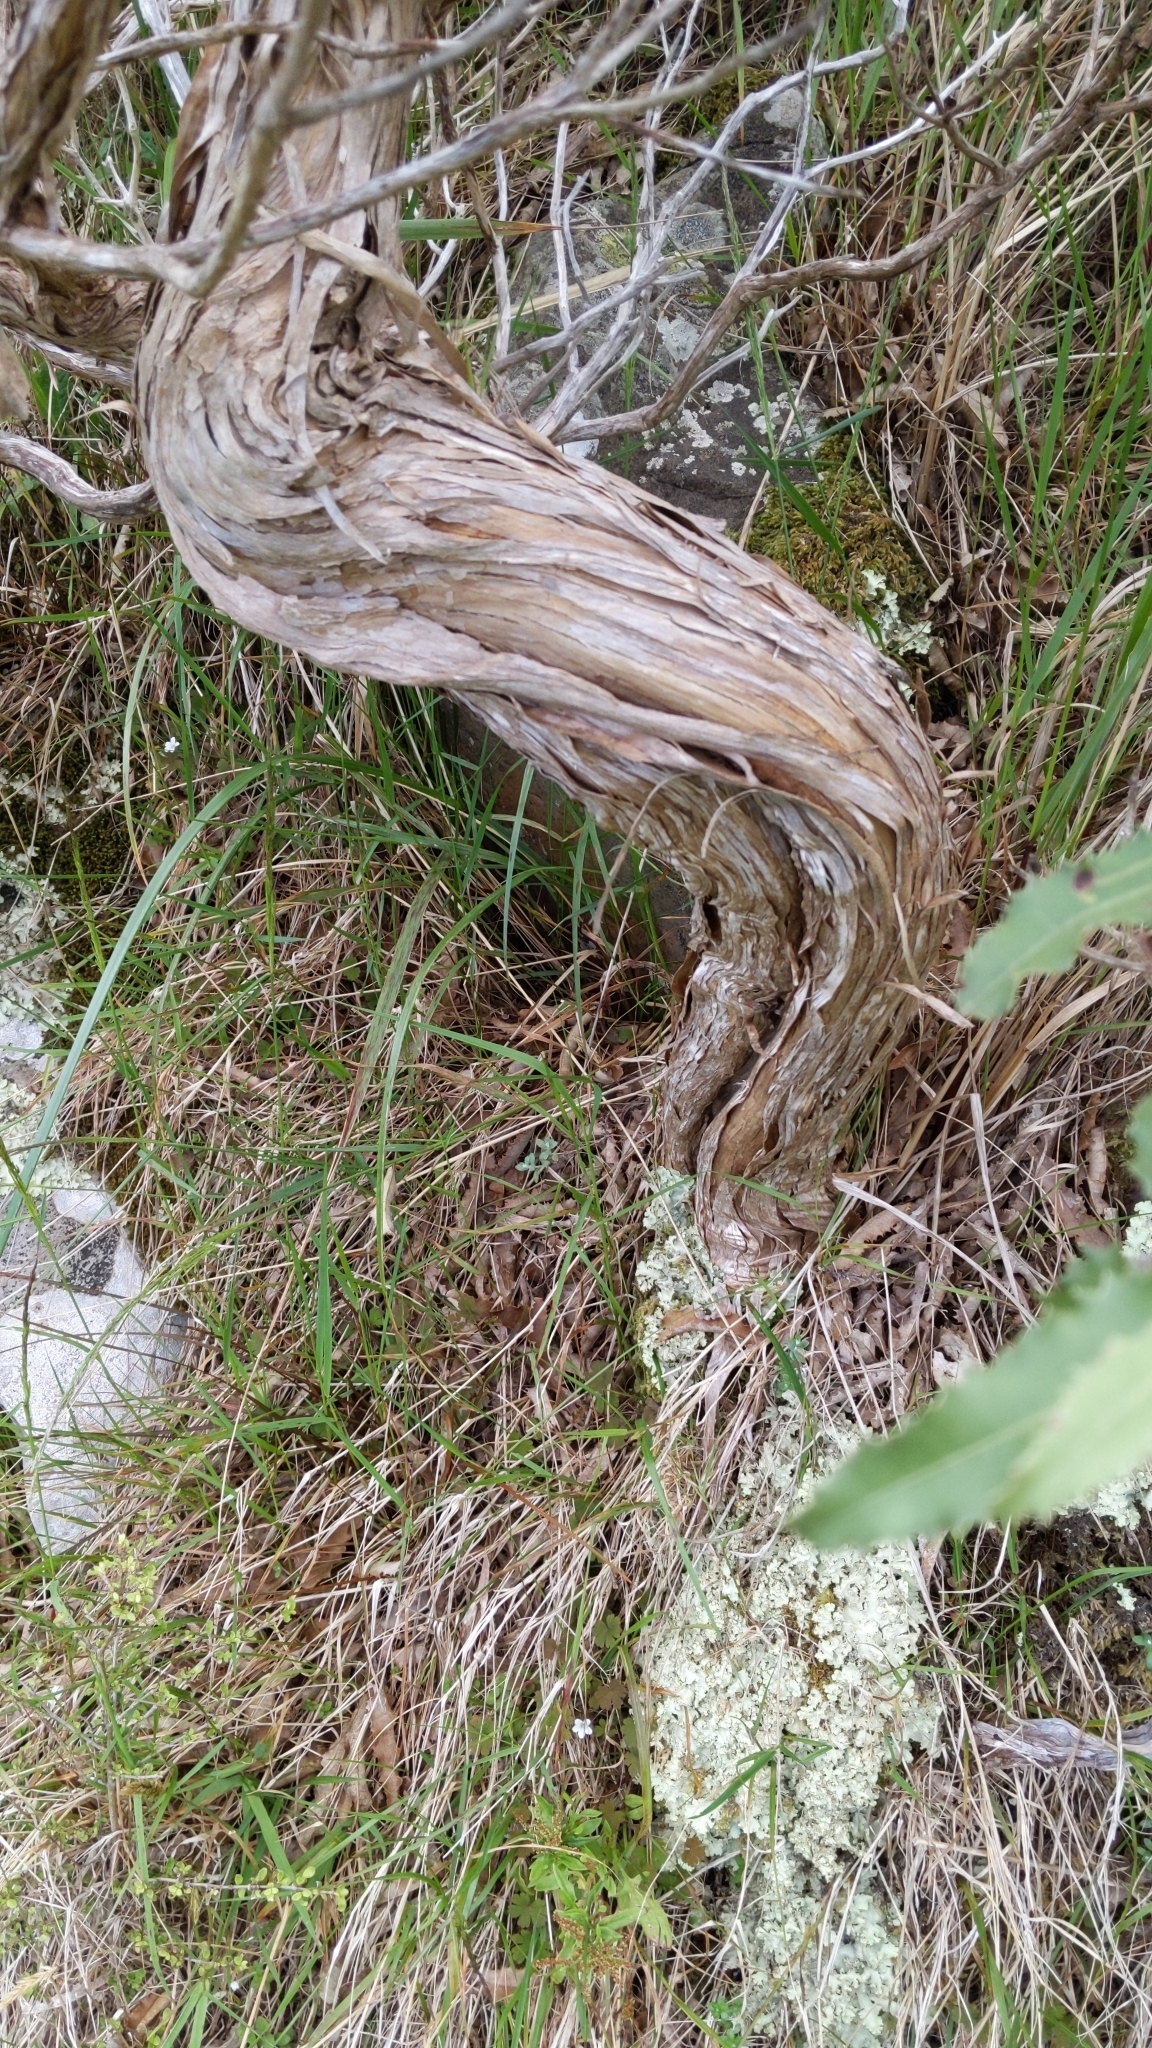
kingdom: Plantae
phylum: Tracheophyta
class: Magnoliopsida
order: Asterales
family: Asteraceae
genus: Olearia
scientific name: Olearia ilicifolia
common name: Maori-holly
